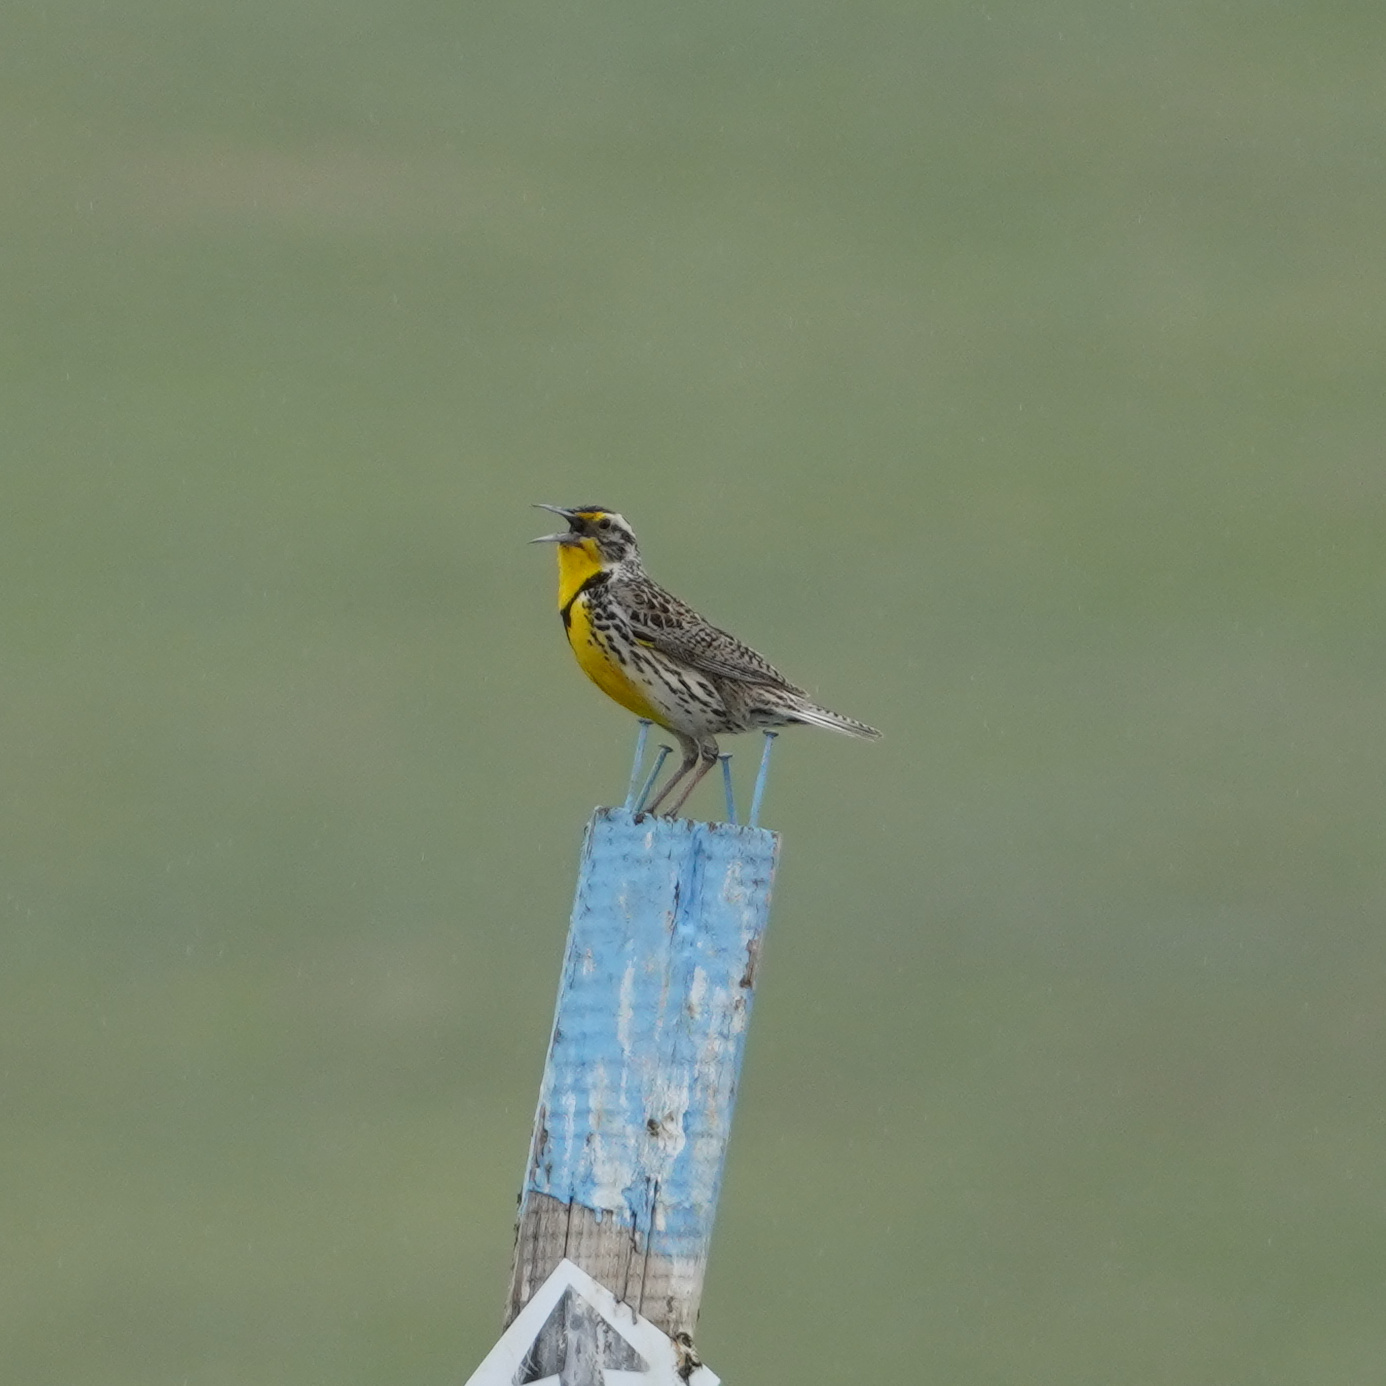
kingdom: Animalia
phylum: Chordata
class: Aves
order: Passeriformes
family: Icteridae
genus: Sturnella
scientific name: Sturnella neglecta
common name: Western meadowlark
